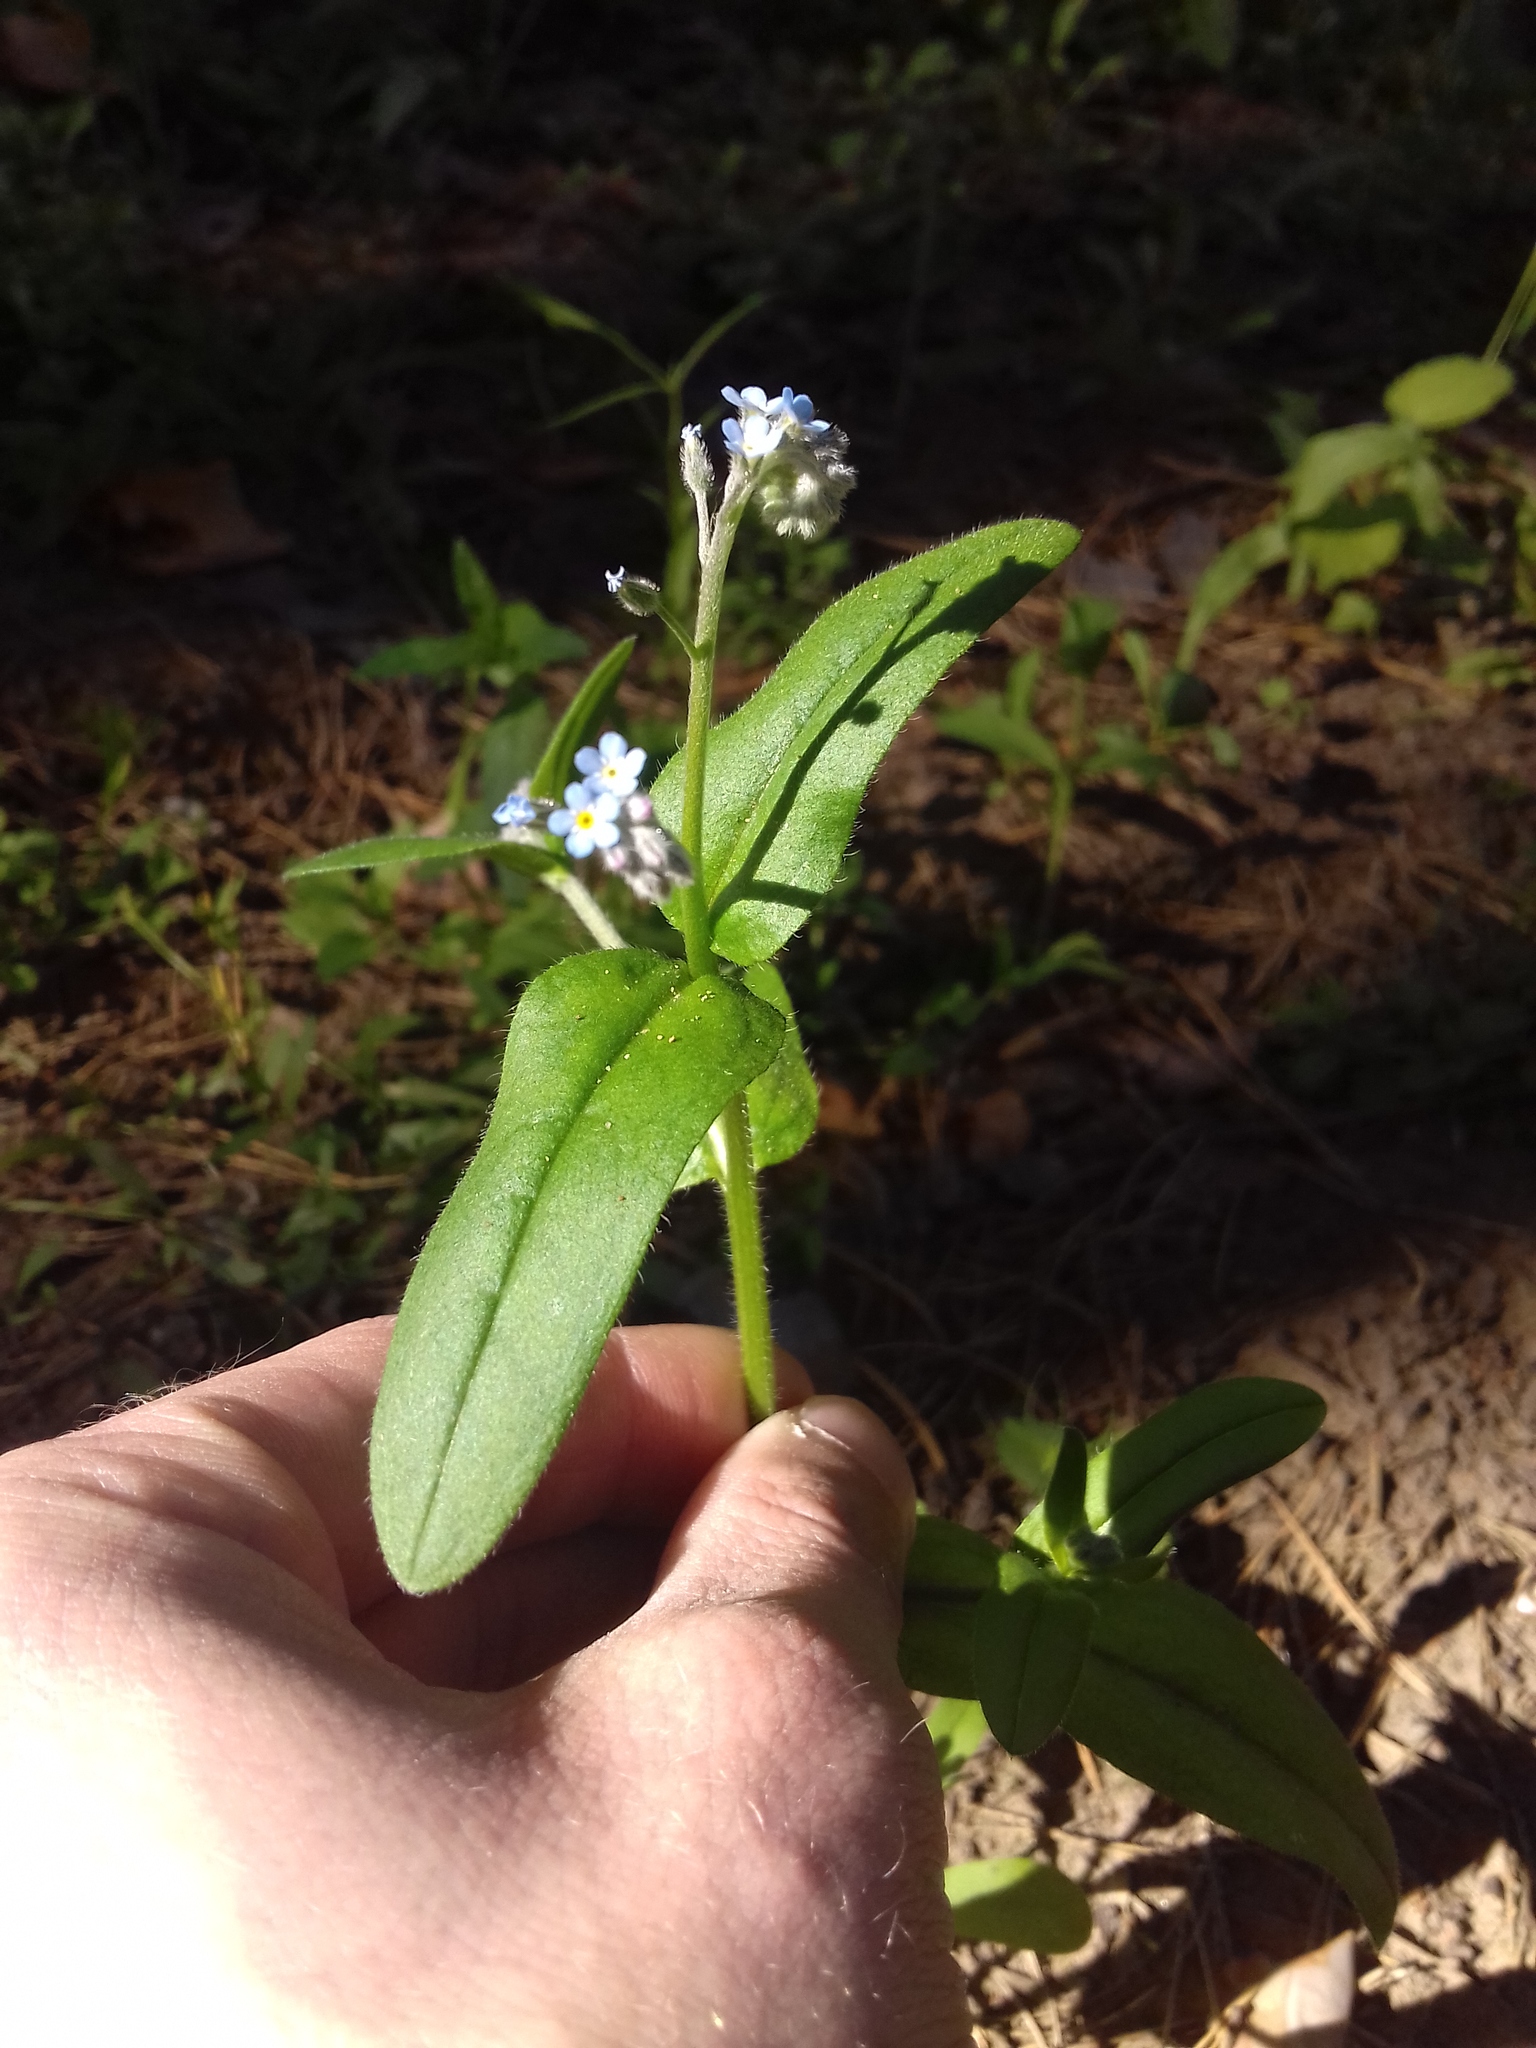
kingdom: Plantae
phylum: Tracheophyta
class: Magnoliopsida
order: Boraginales
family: Boraginaceae
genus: Myosotis
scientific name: Myosotis sylvatica
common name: Wood forget-me-not
